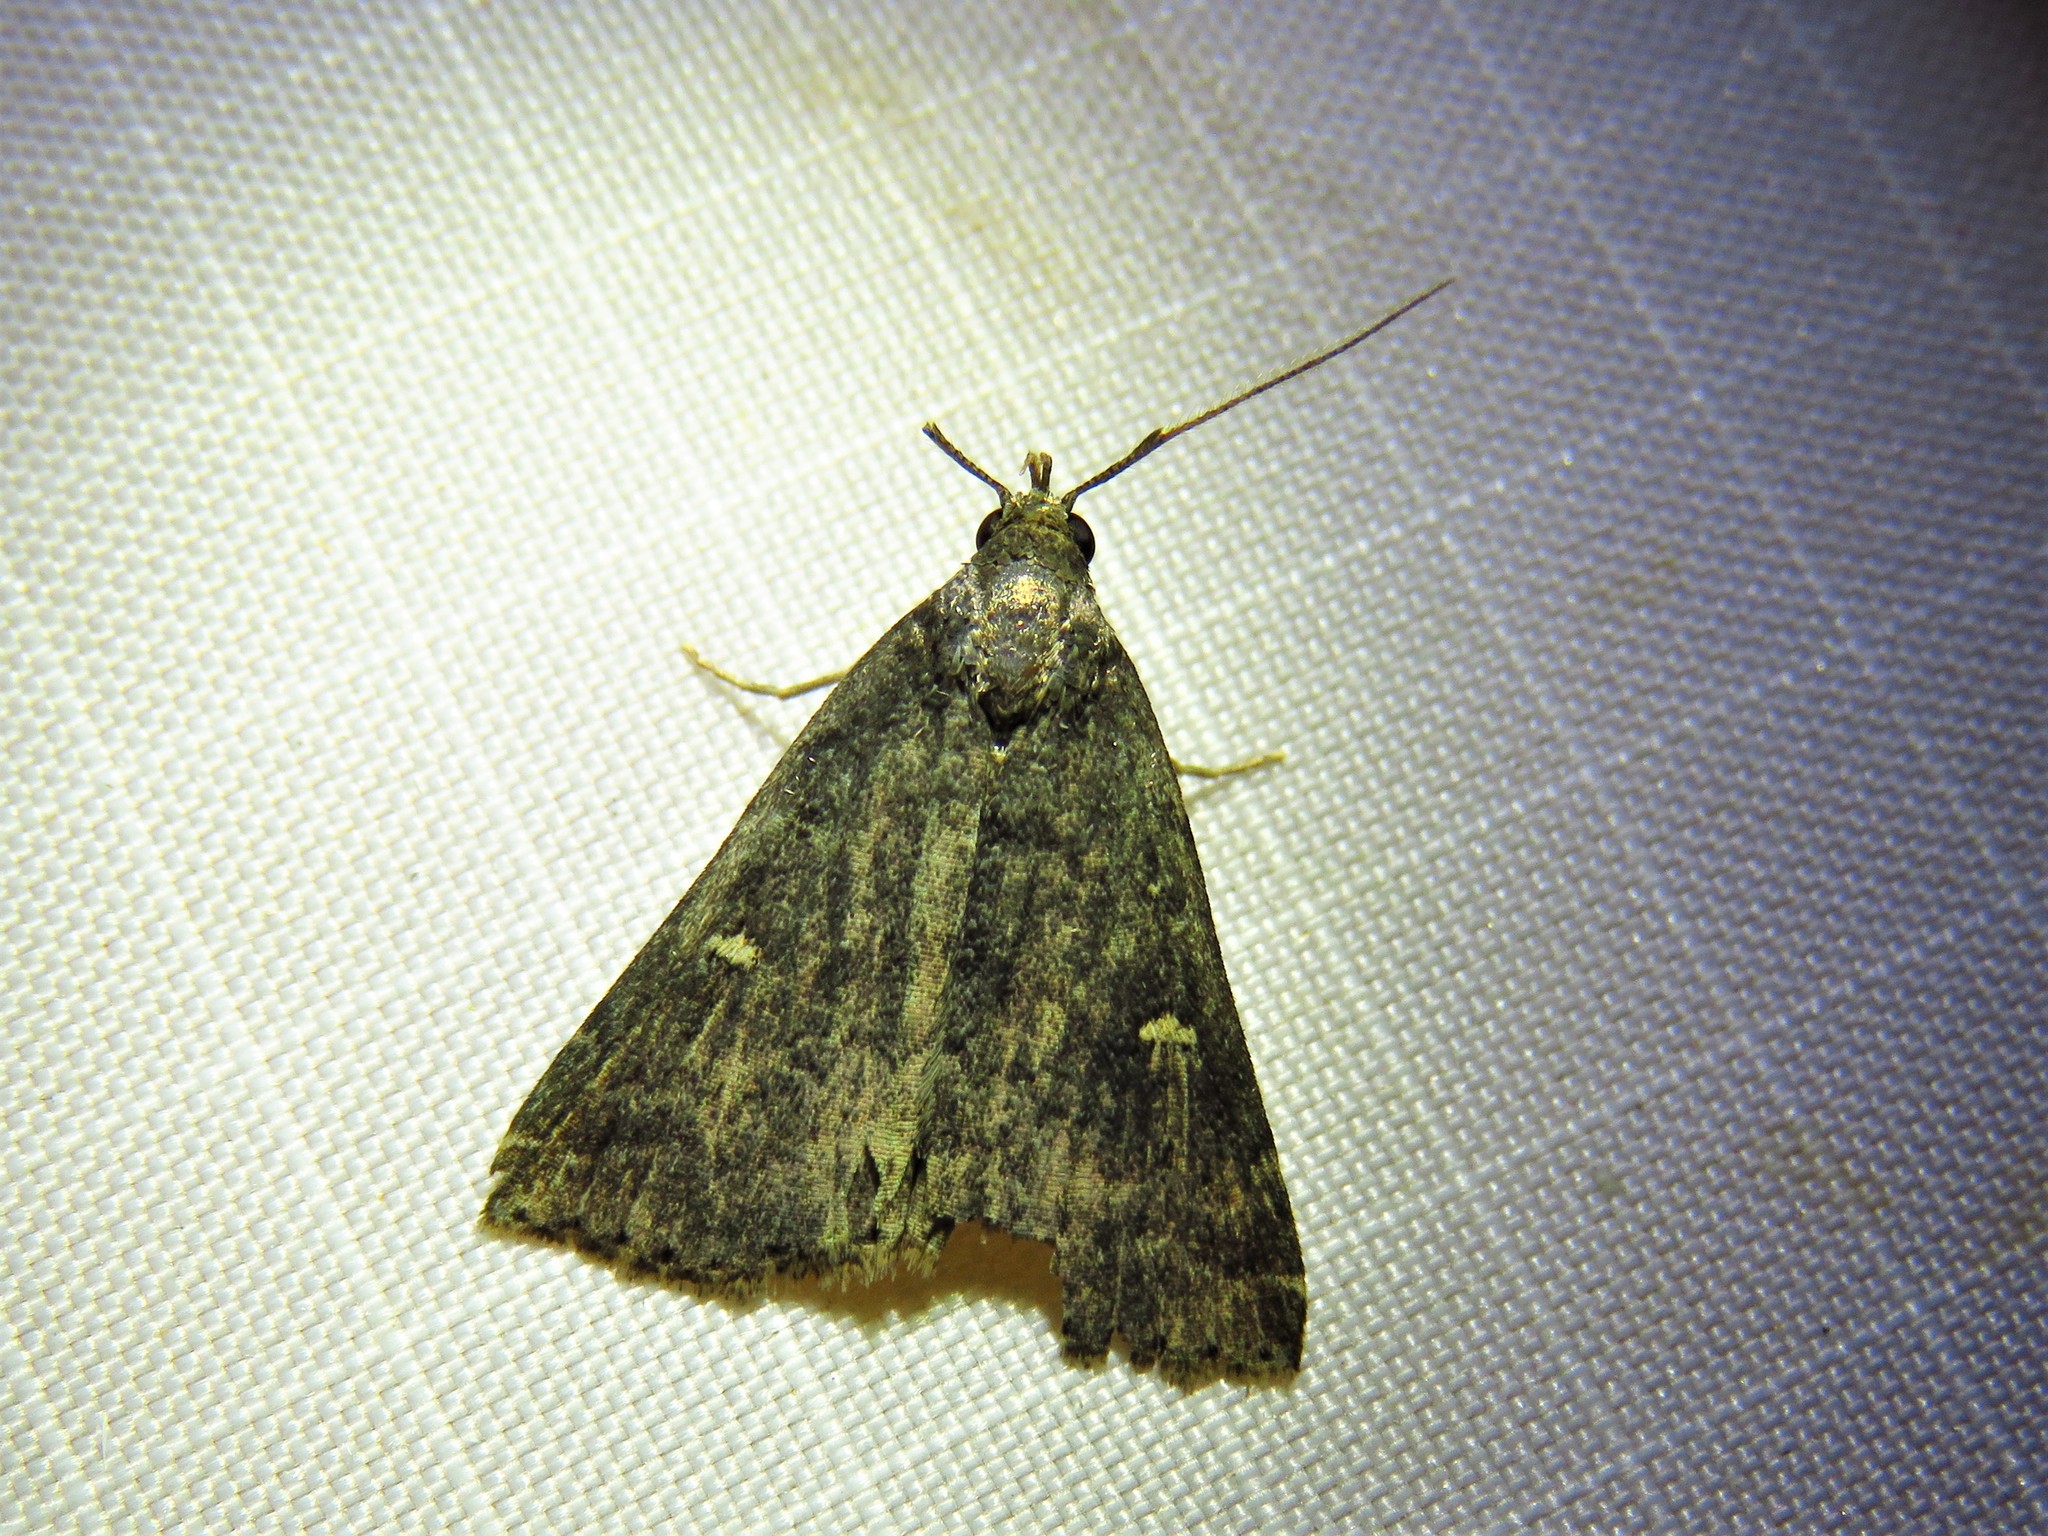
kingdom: Animalia
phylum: Arthropoda
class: Insecta
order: Lepidoptera
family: Erebidae
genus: Tetanolita
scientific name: Tetanolita mynesalis
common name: Smoky tetanolita moth
